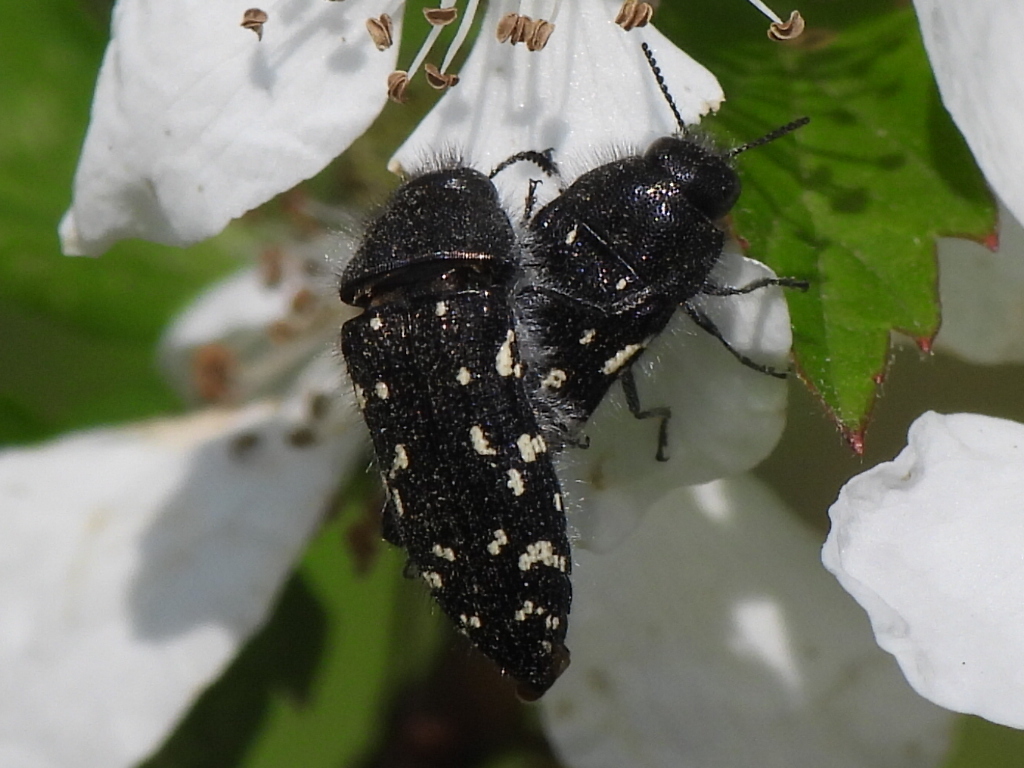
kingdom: Animalia
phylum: Arthropoda
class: Insecta
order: Coleoptera
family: Buprestidae
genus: Acmaeodera
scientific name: Acmaeodera ornata
